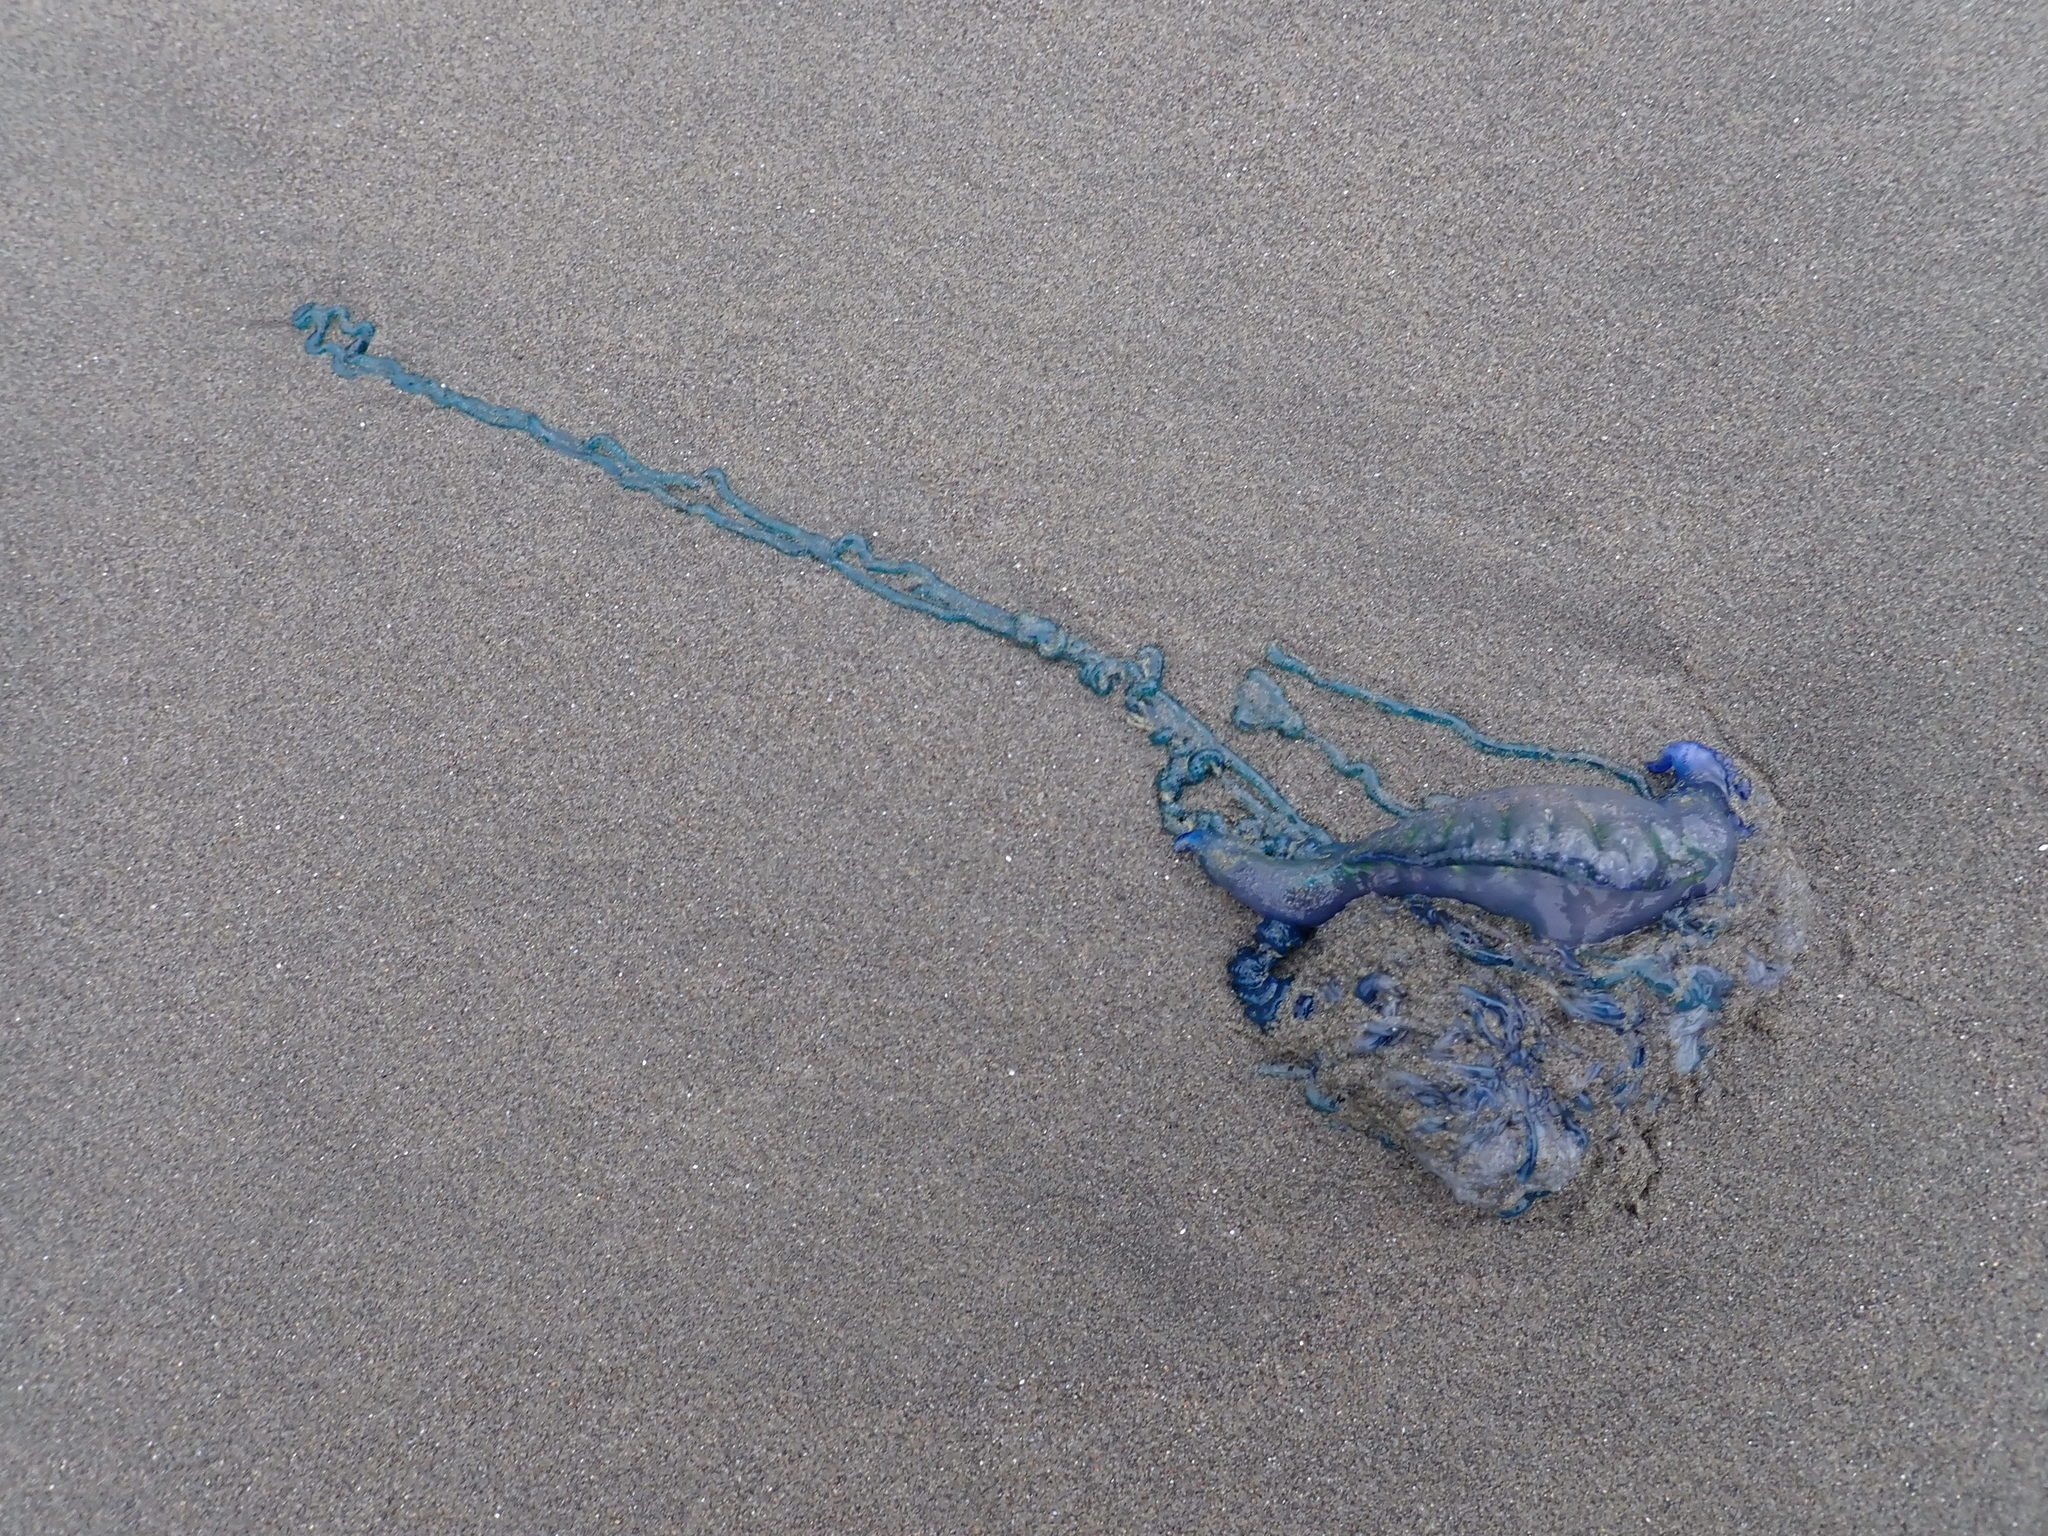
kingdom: Animalia
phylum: Cnidaria
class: Hydrozoa
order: Siphonophorae
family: Physaliidae
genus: Physalia
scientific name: Physalia physalis
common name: Portuguese man-of-war
